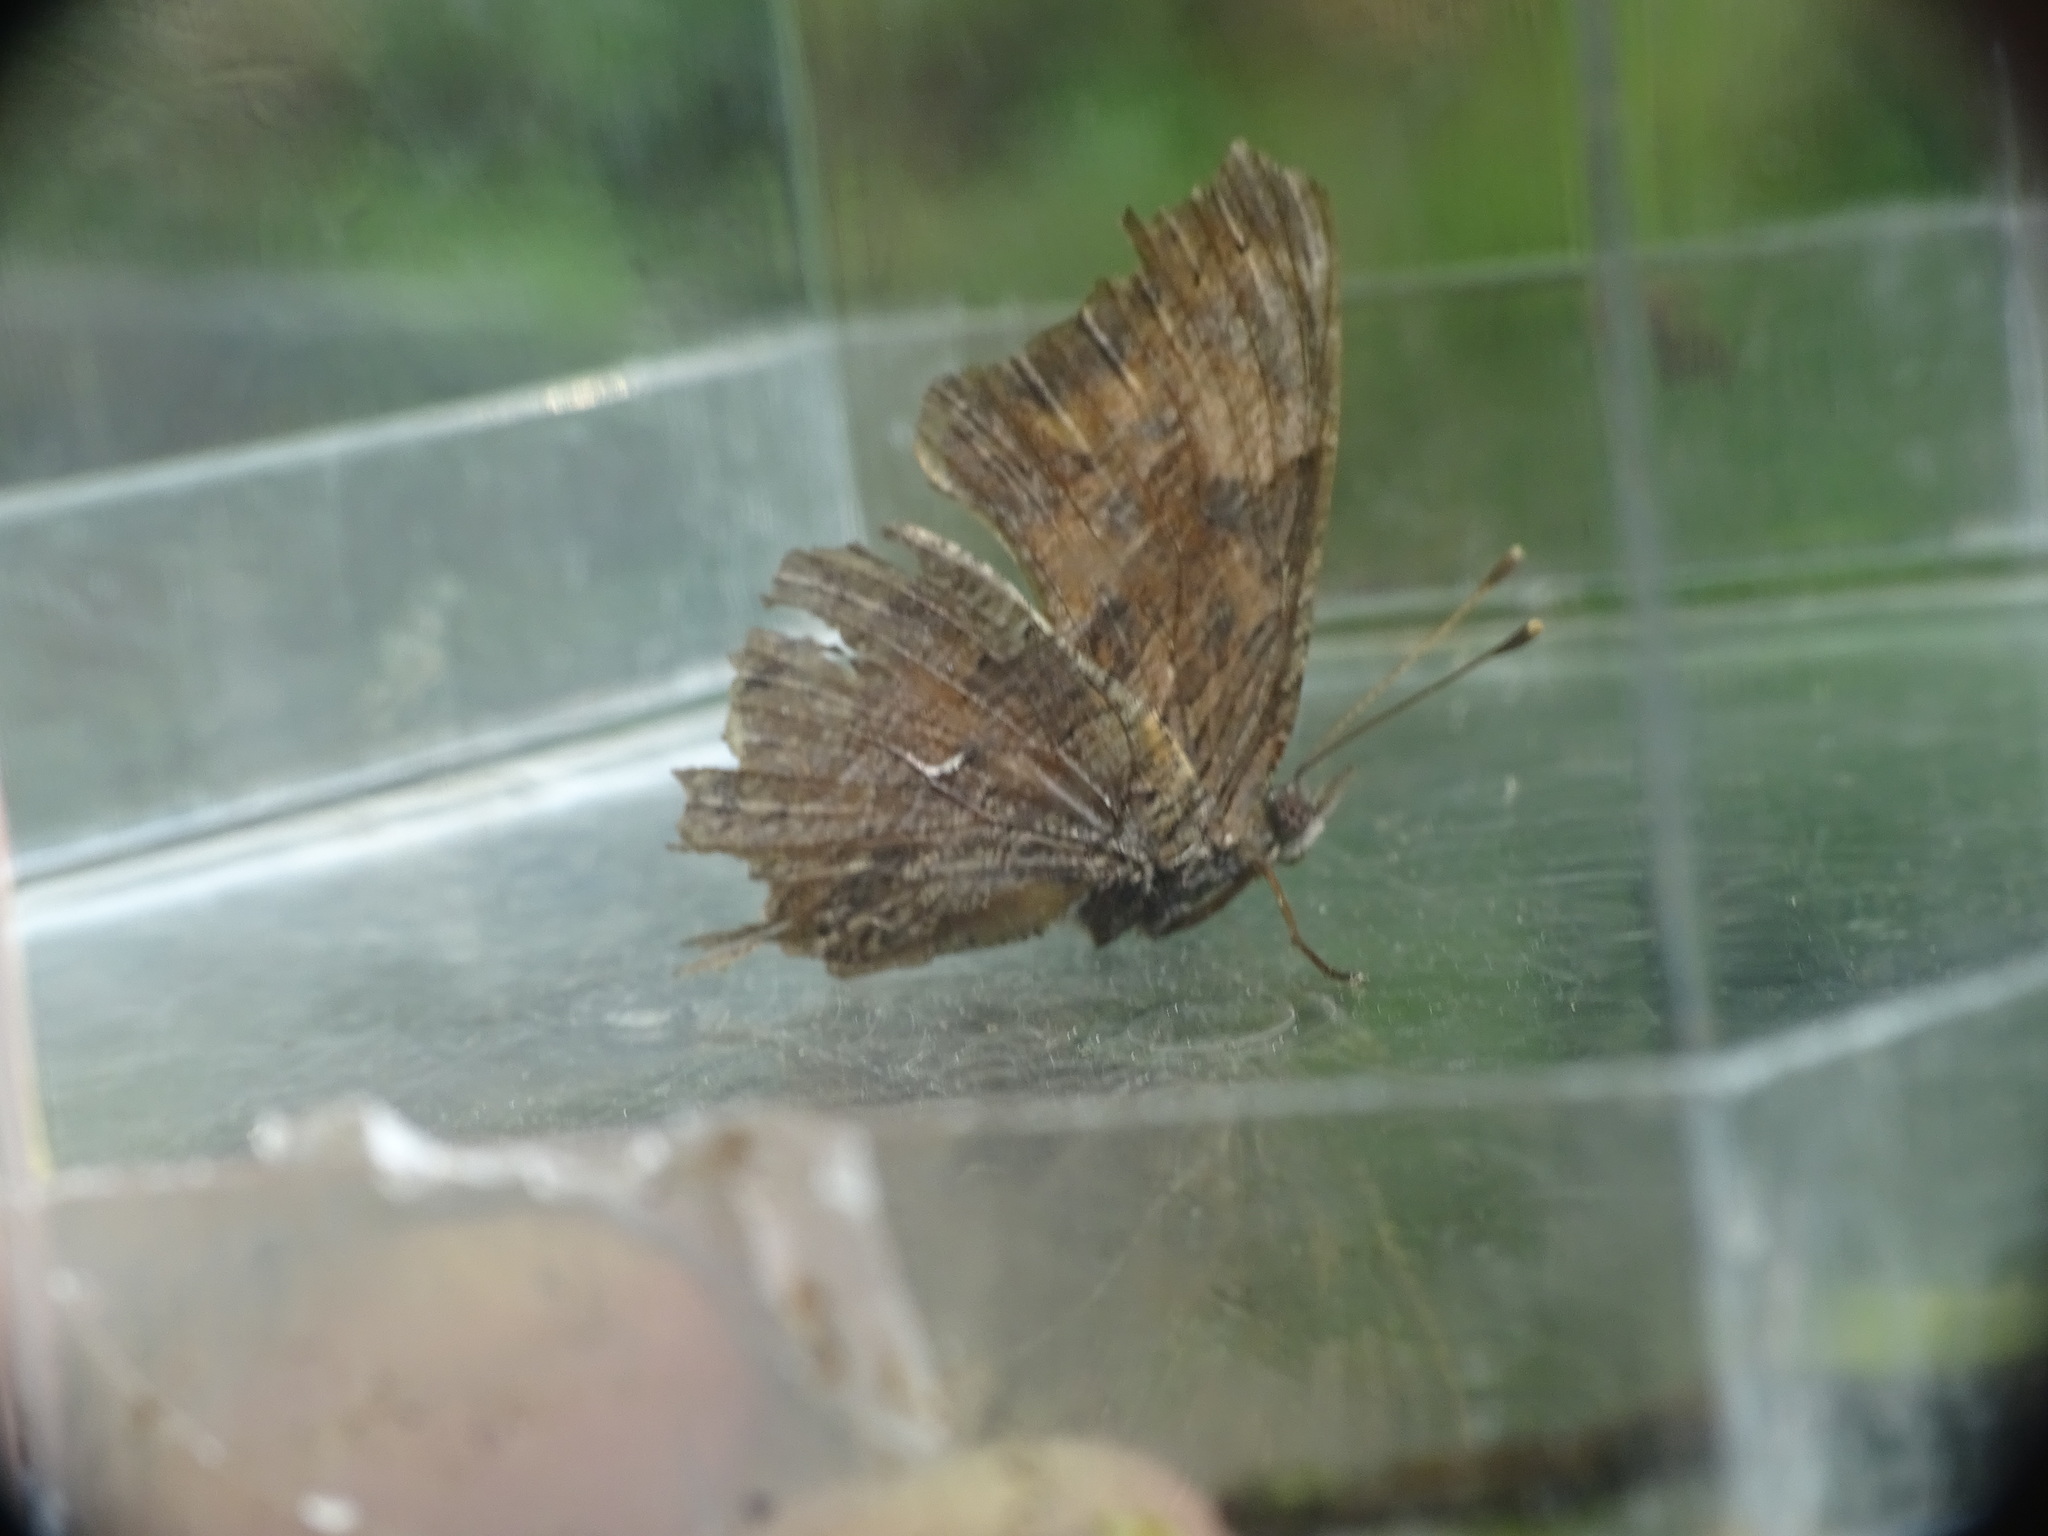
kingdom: Animalia
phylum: Arthropoda
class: Insecta
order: Lepidoptera
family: Nymphalidae
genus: Polygonia
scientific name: Polygonia
